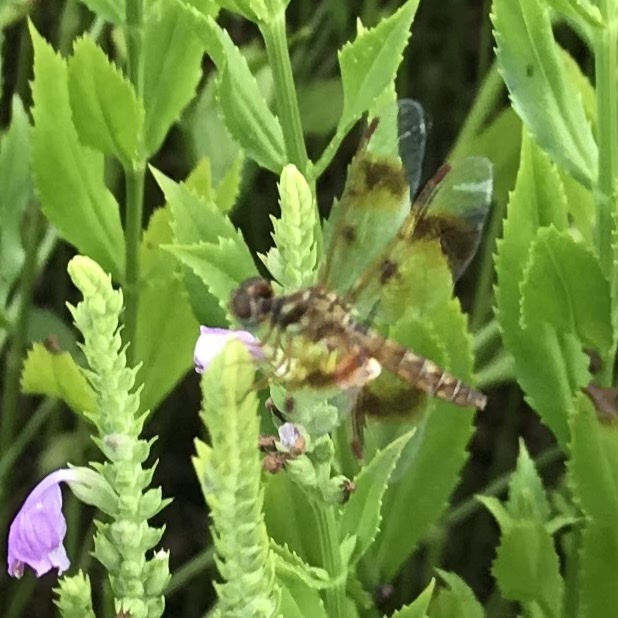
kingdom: Animalia
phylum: Arthropoda
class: Insecta
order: Odonata
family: Libellulidae
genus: Perithemis
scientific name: Perithemis tenera
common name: Eastern amberwing
